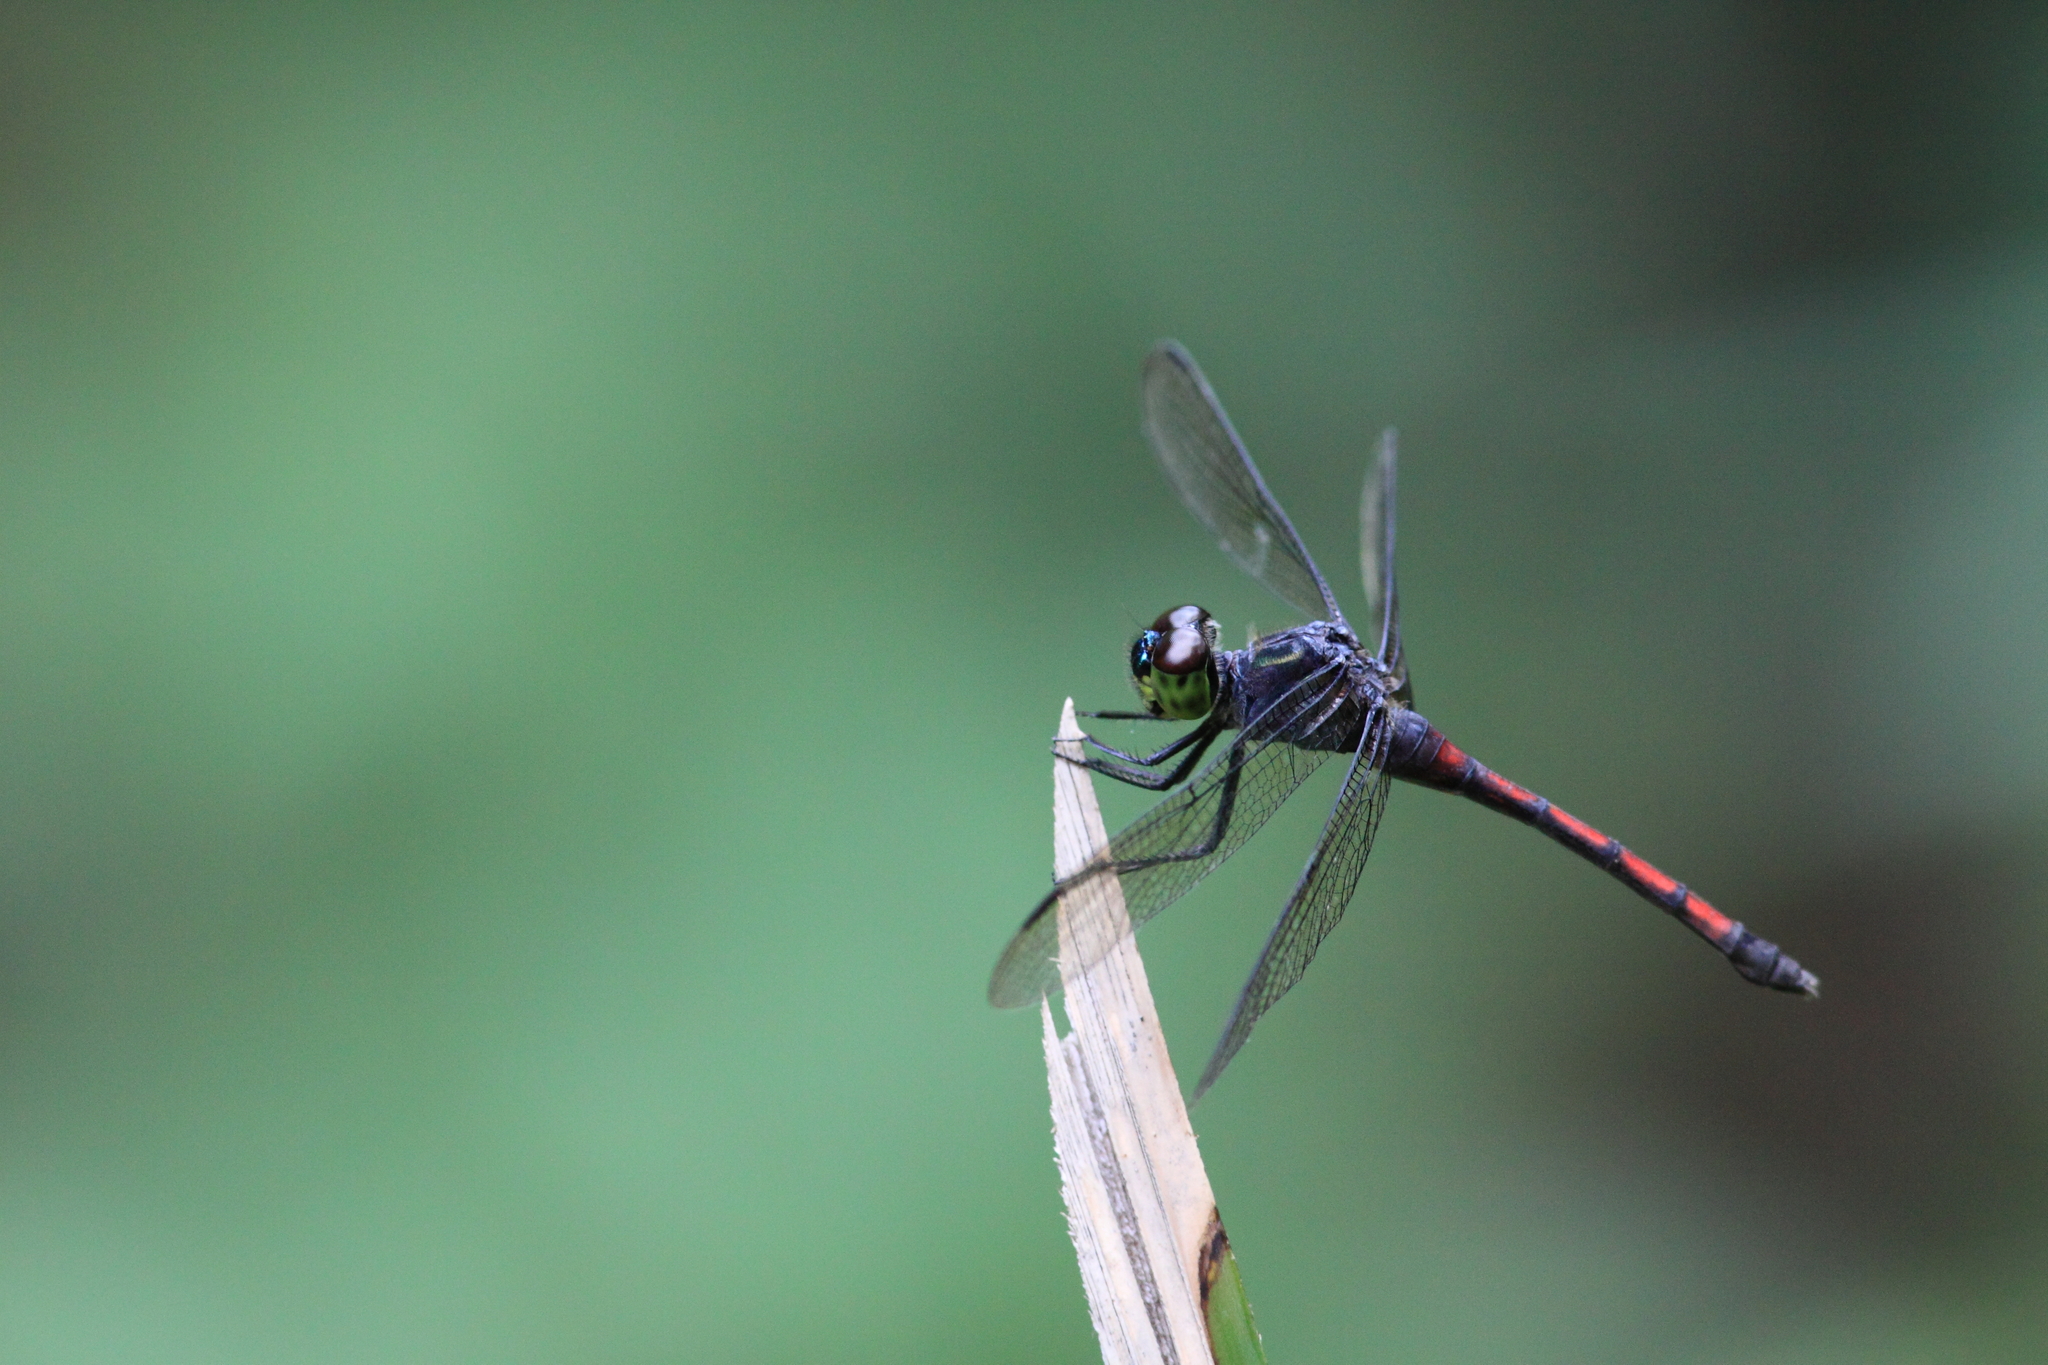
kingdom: Animalia
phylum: Arthropoda
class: Insecta
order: Odonata
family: Libellulidae
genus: Agrionoptera
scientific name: Agrionoptera insignis
